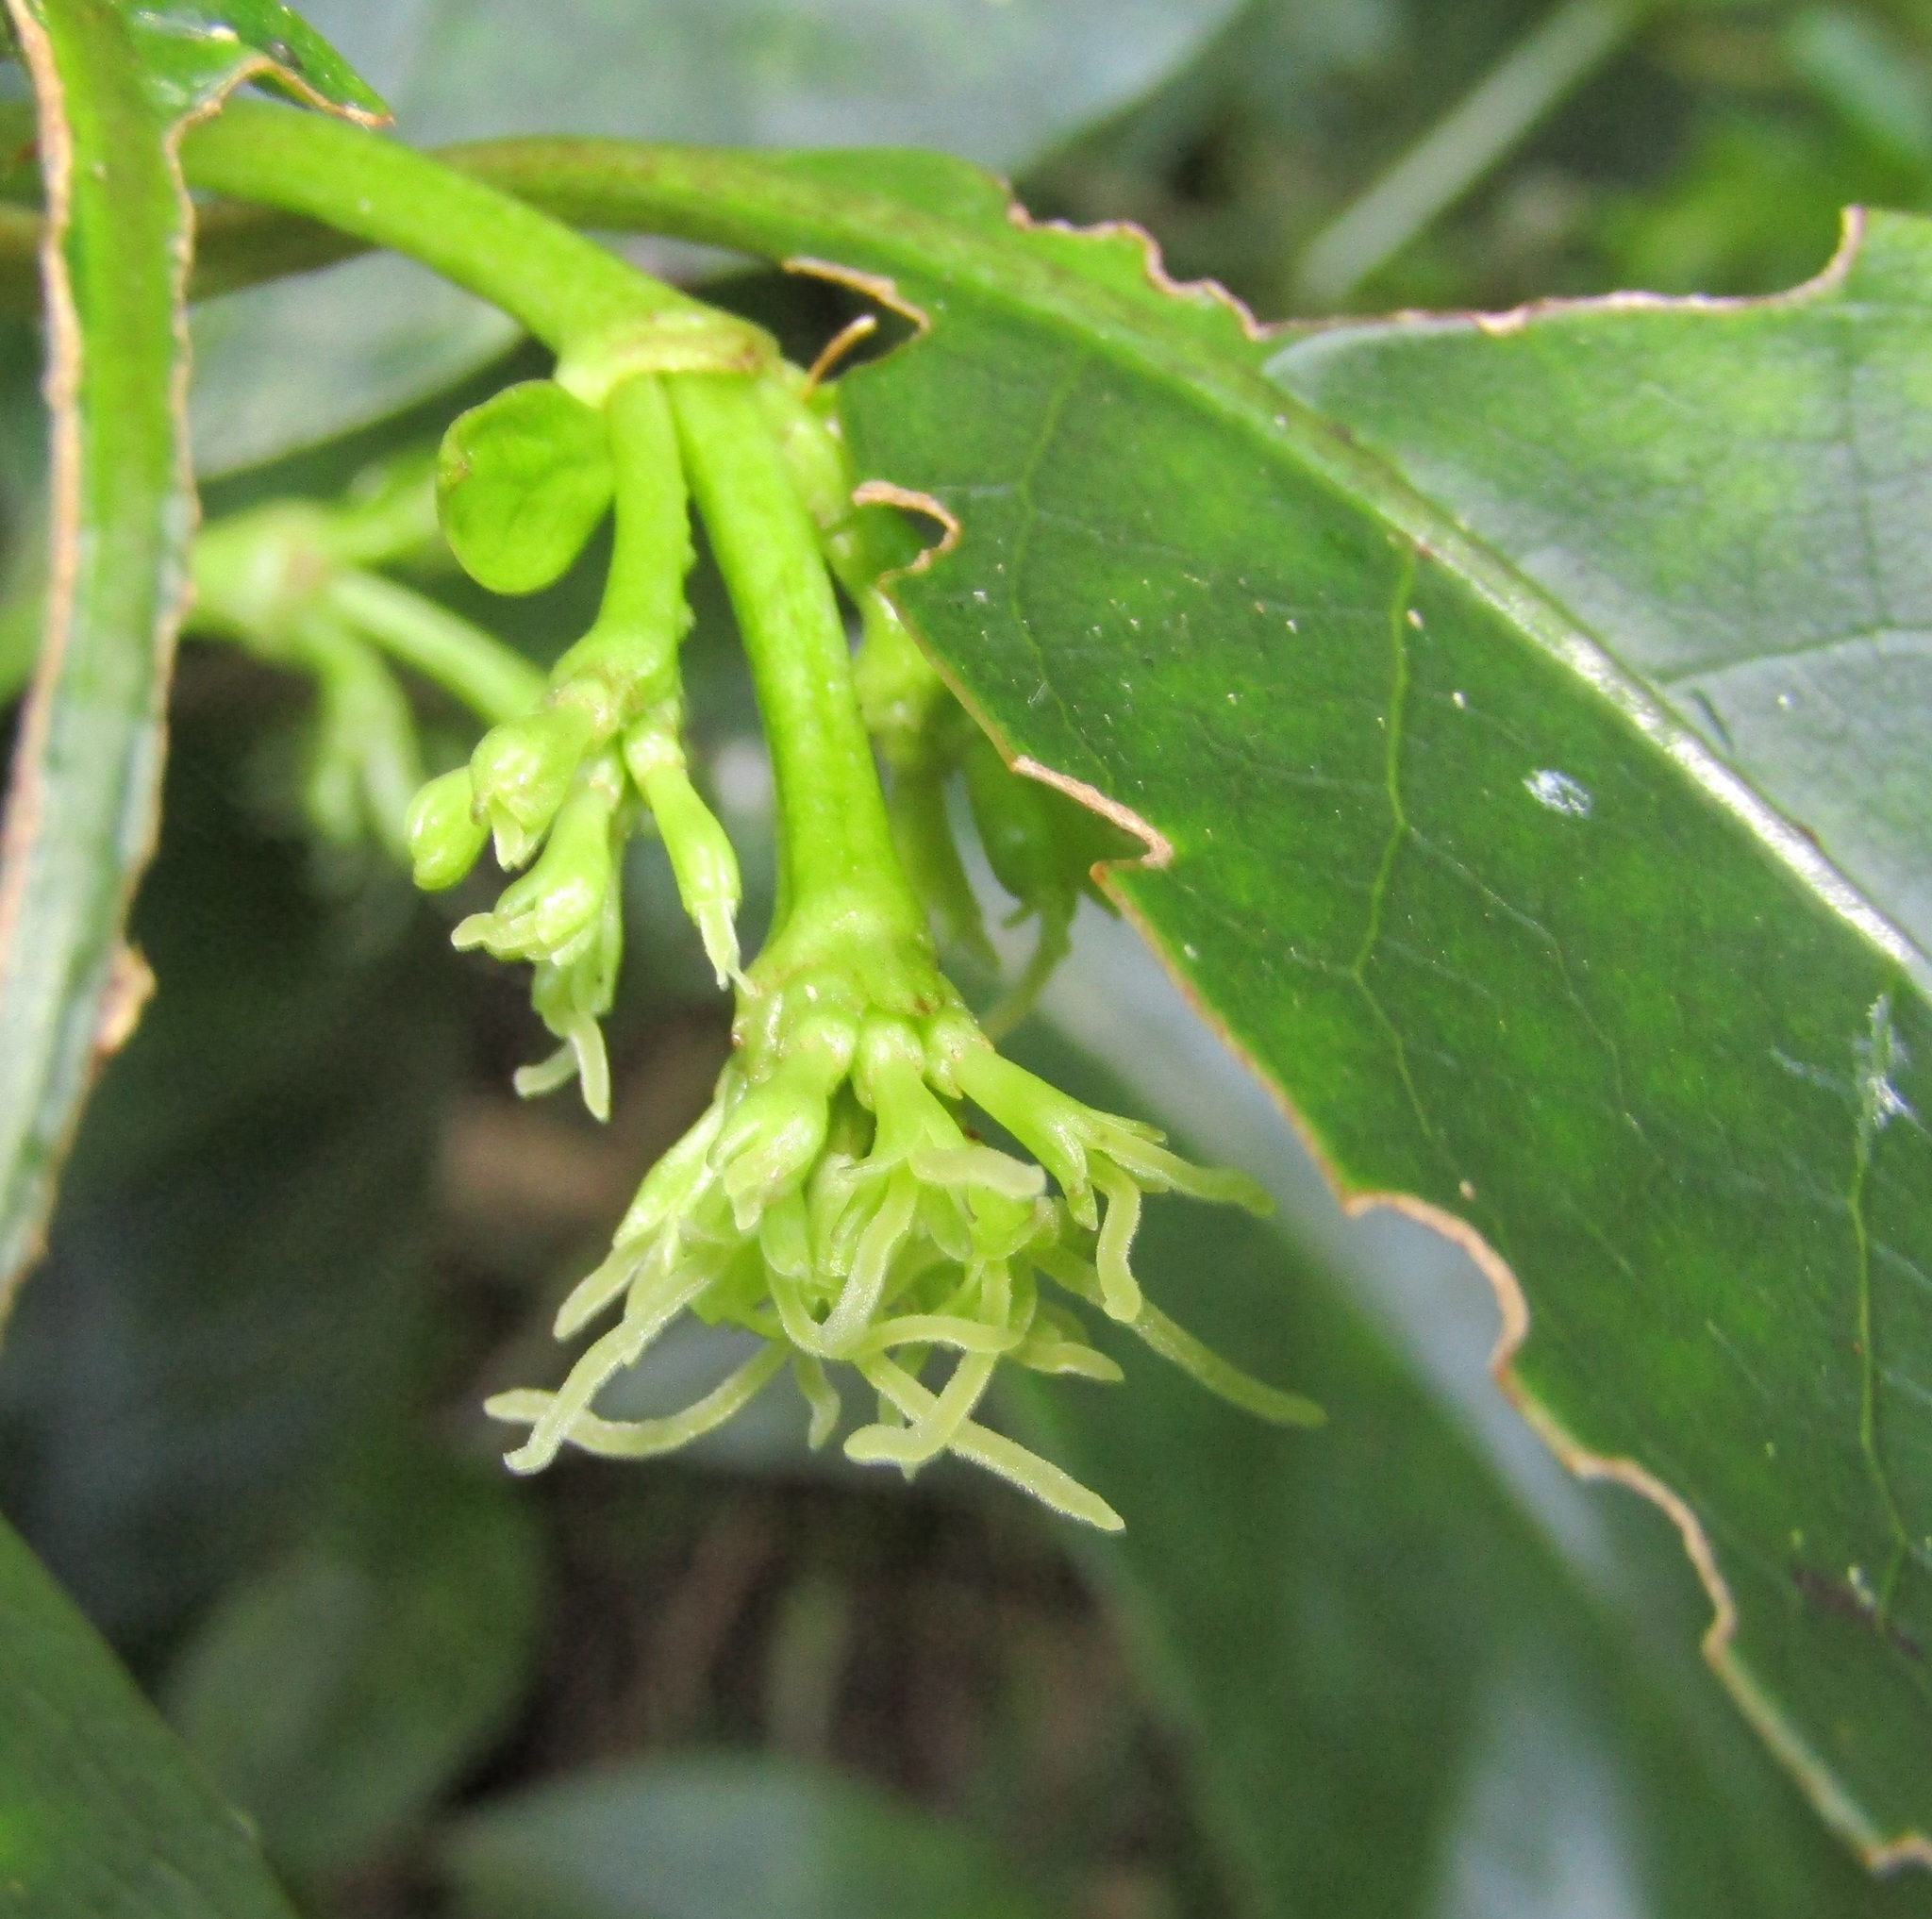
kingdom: Plantae
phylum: Tracheophyta
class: Magnoliopsida
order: Gentianales
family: Rubiaceae
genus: Coprosma
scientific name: Coprosma autumnalis
